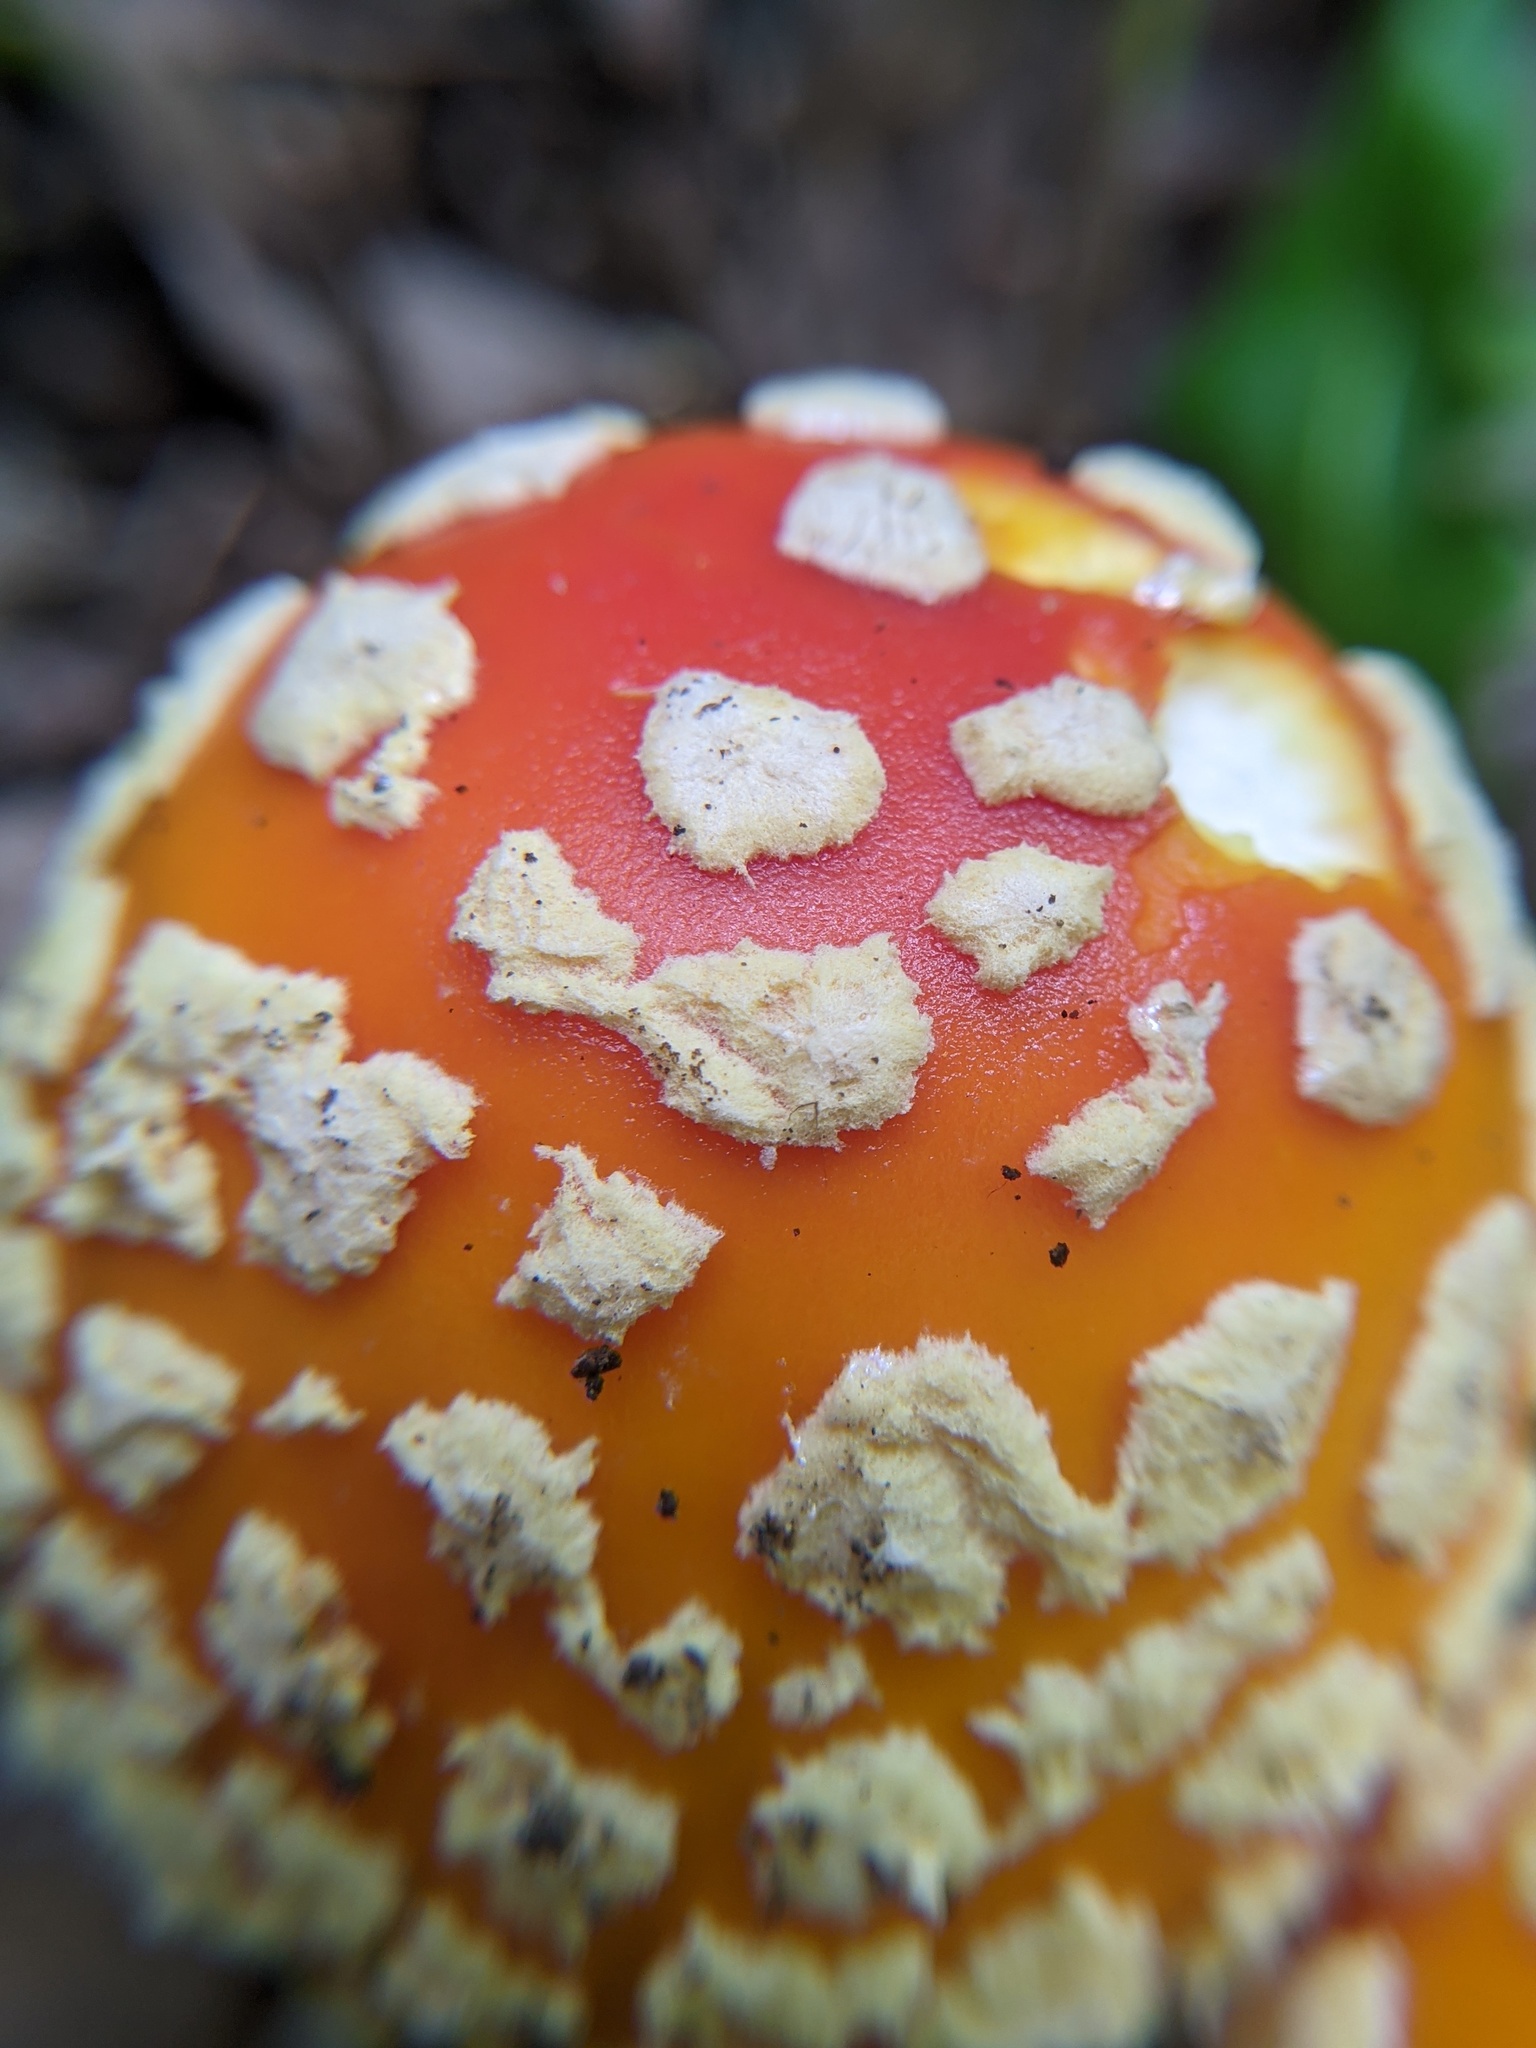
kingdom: Fungi
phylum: Basidiomycota
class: Agaricomycetes
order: Agaricales
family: Amanitaceae
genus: Amanita
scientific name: Amanita muscaria
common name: Fly agaric
